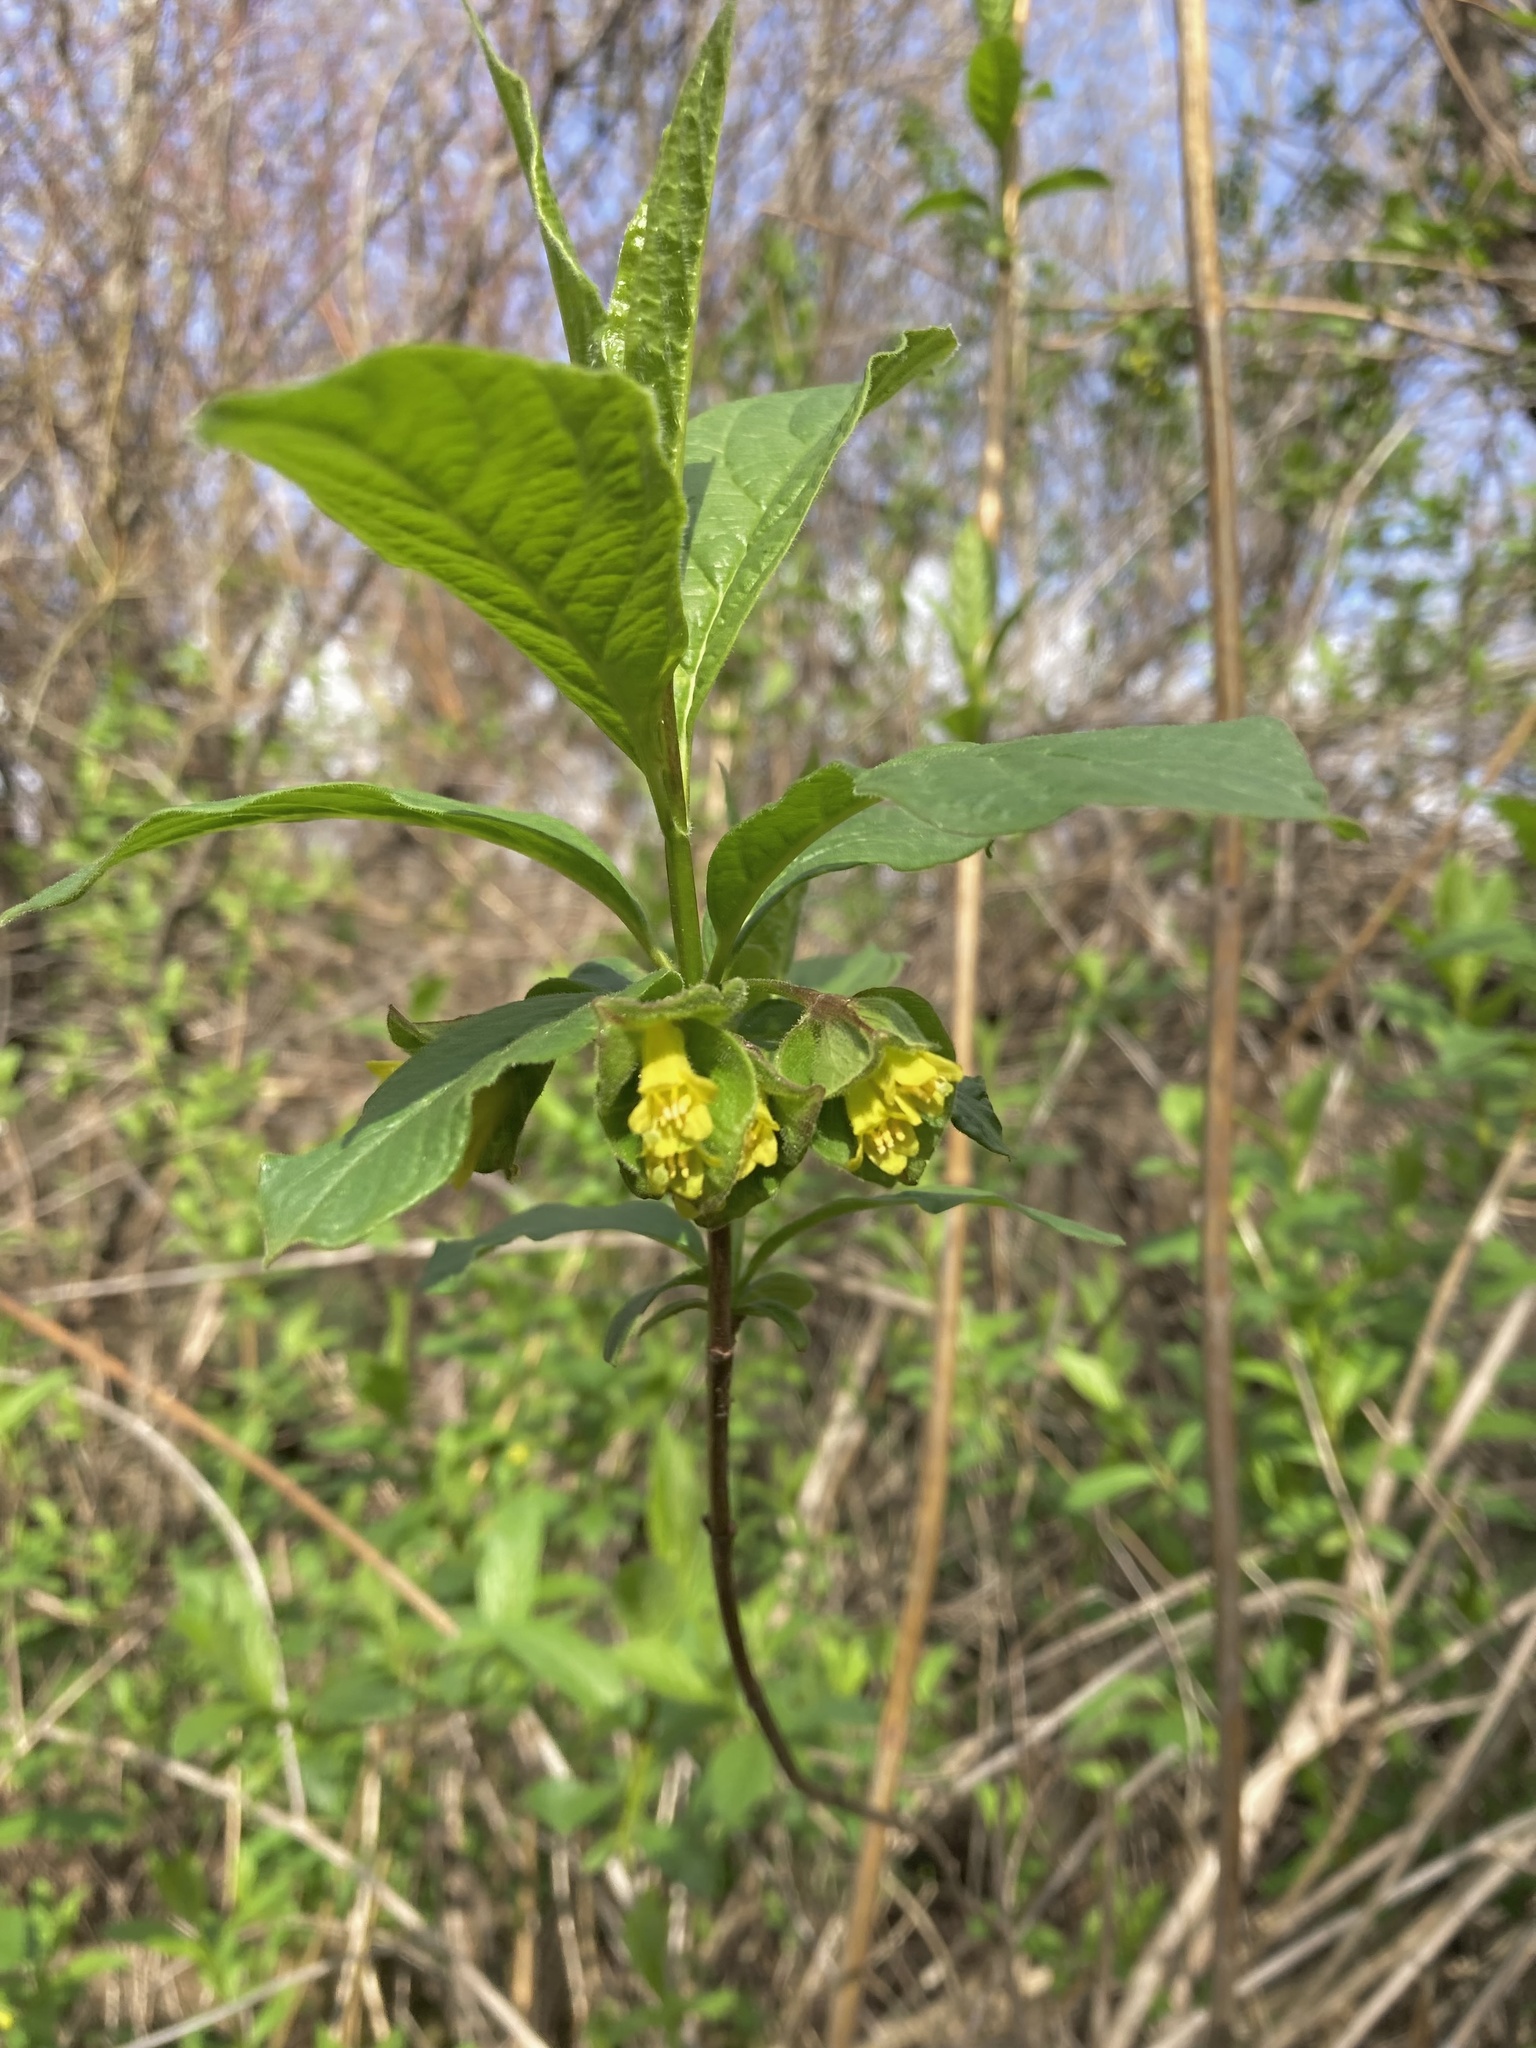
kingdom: Plantae
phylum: Tracheophyta
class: Magnoliopsida
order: Dipsacales
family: Caprifoliaceae
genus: Lonicera
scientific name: Lonicera involucrata
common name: Californian honeysuckle
